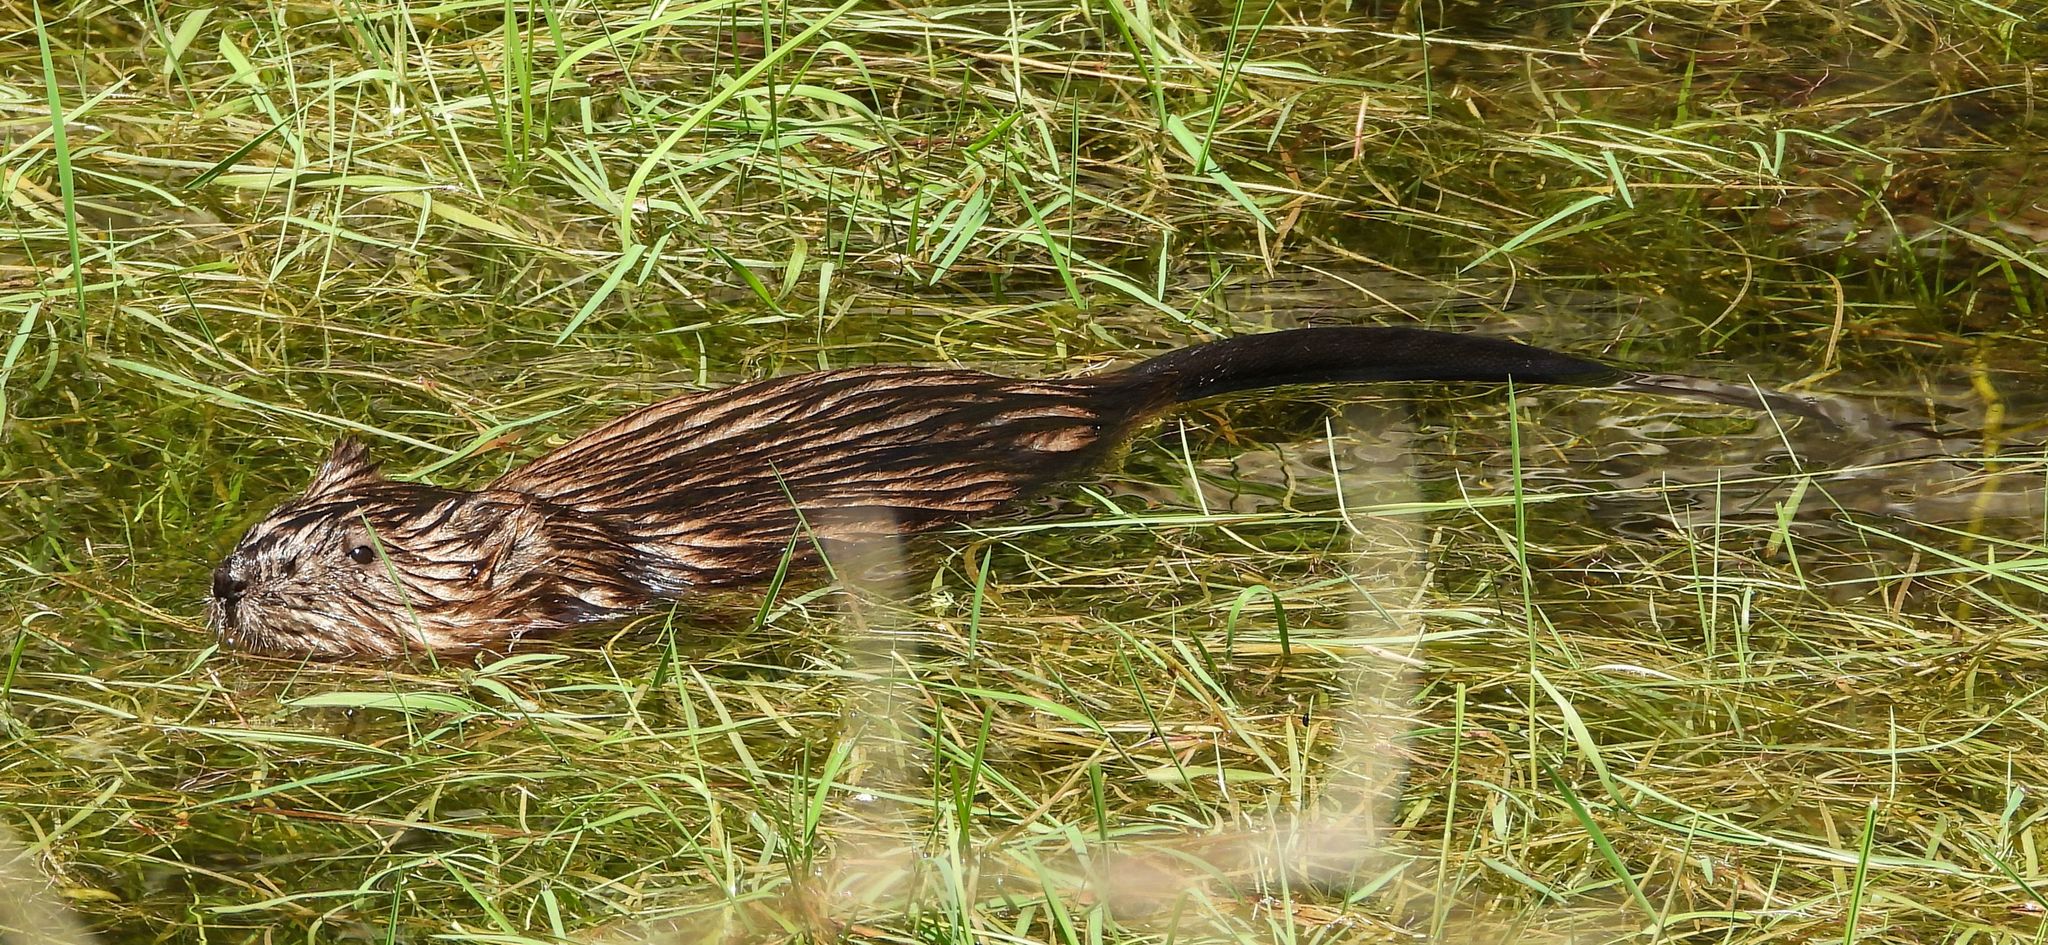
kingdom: Animalia
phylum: Chordata
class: Mammalia
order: Rodentia
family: Cricetidae
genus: Ondatra
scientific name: Ondatra zibethicus
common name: Muskrat
